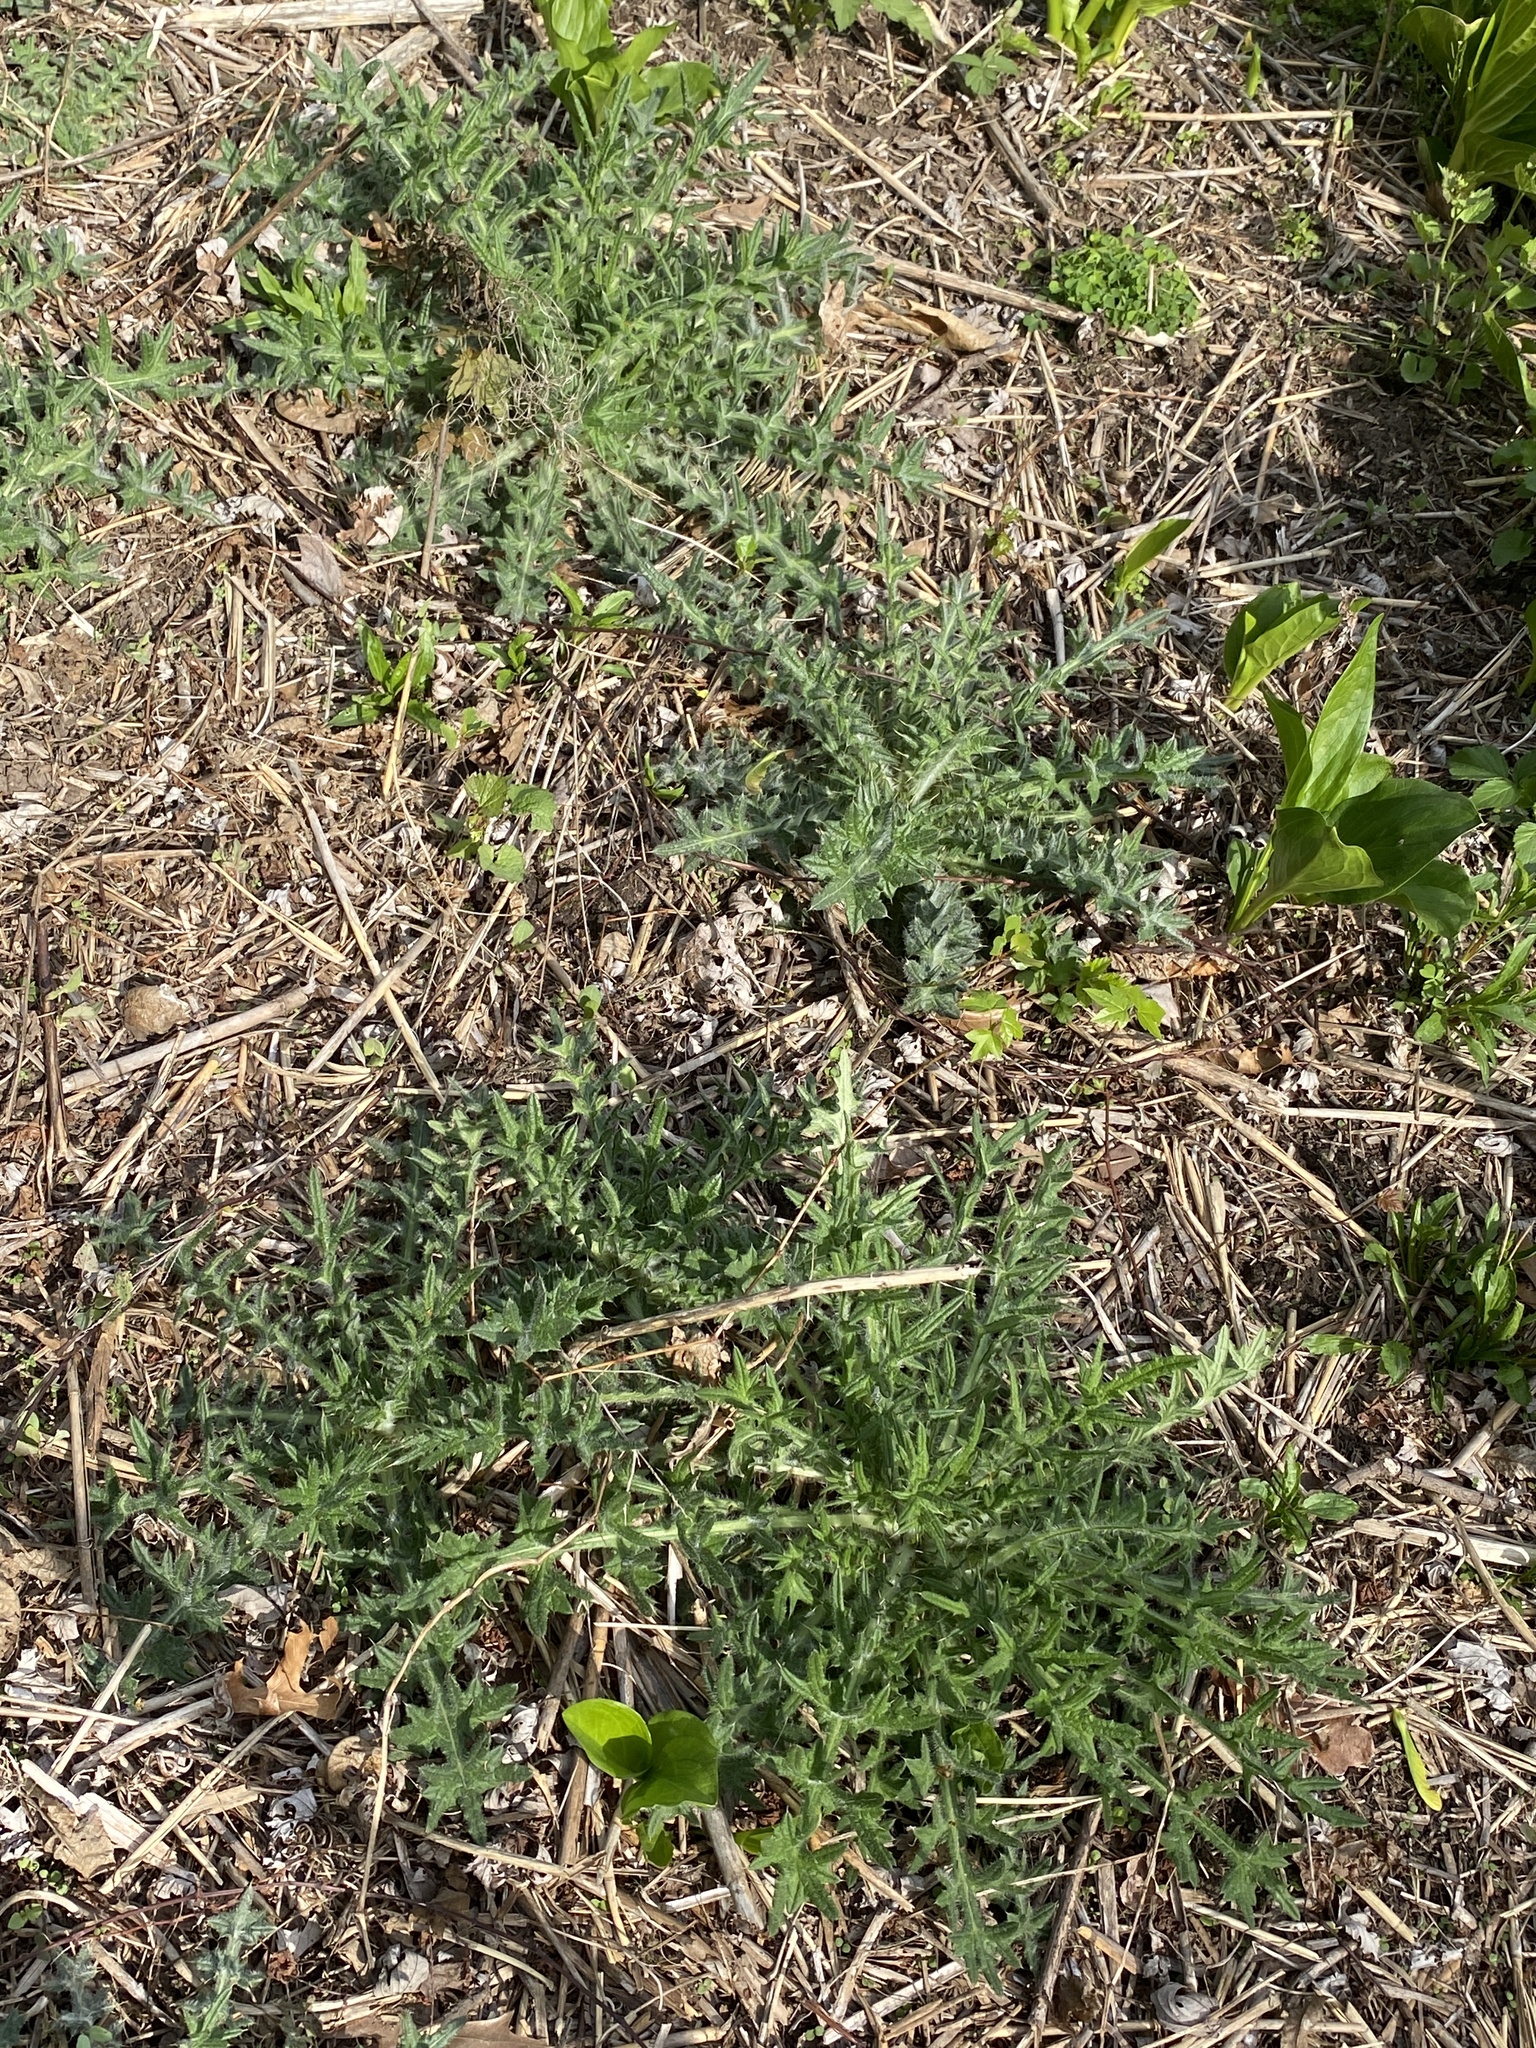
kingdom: Plantae
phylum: Tracheophyta
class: Magnoliopsida
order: Asterales
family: Asteraceae
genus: Cirsium
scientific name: Cirsium vulgare
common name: Bull thistle
